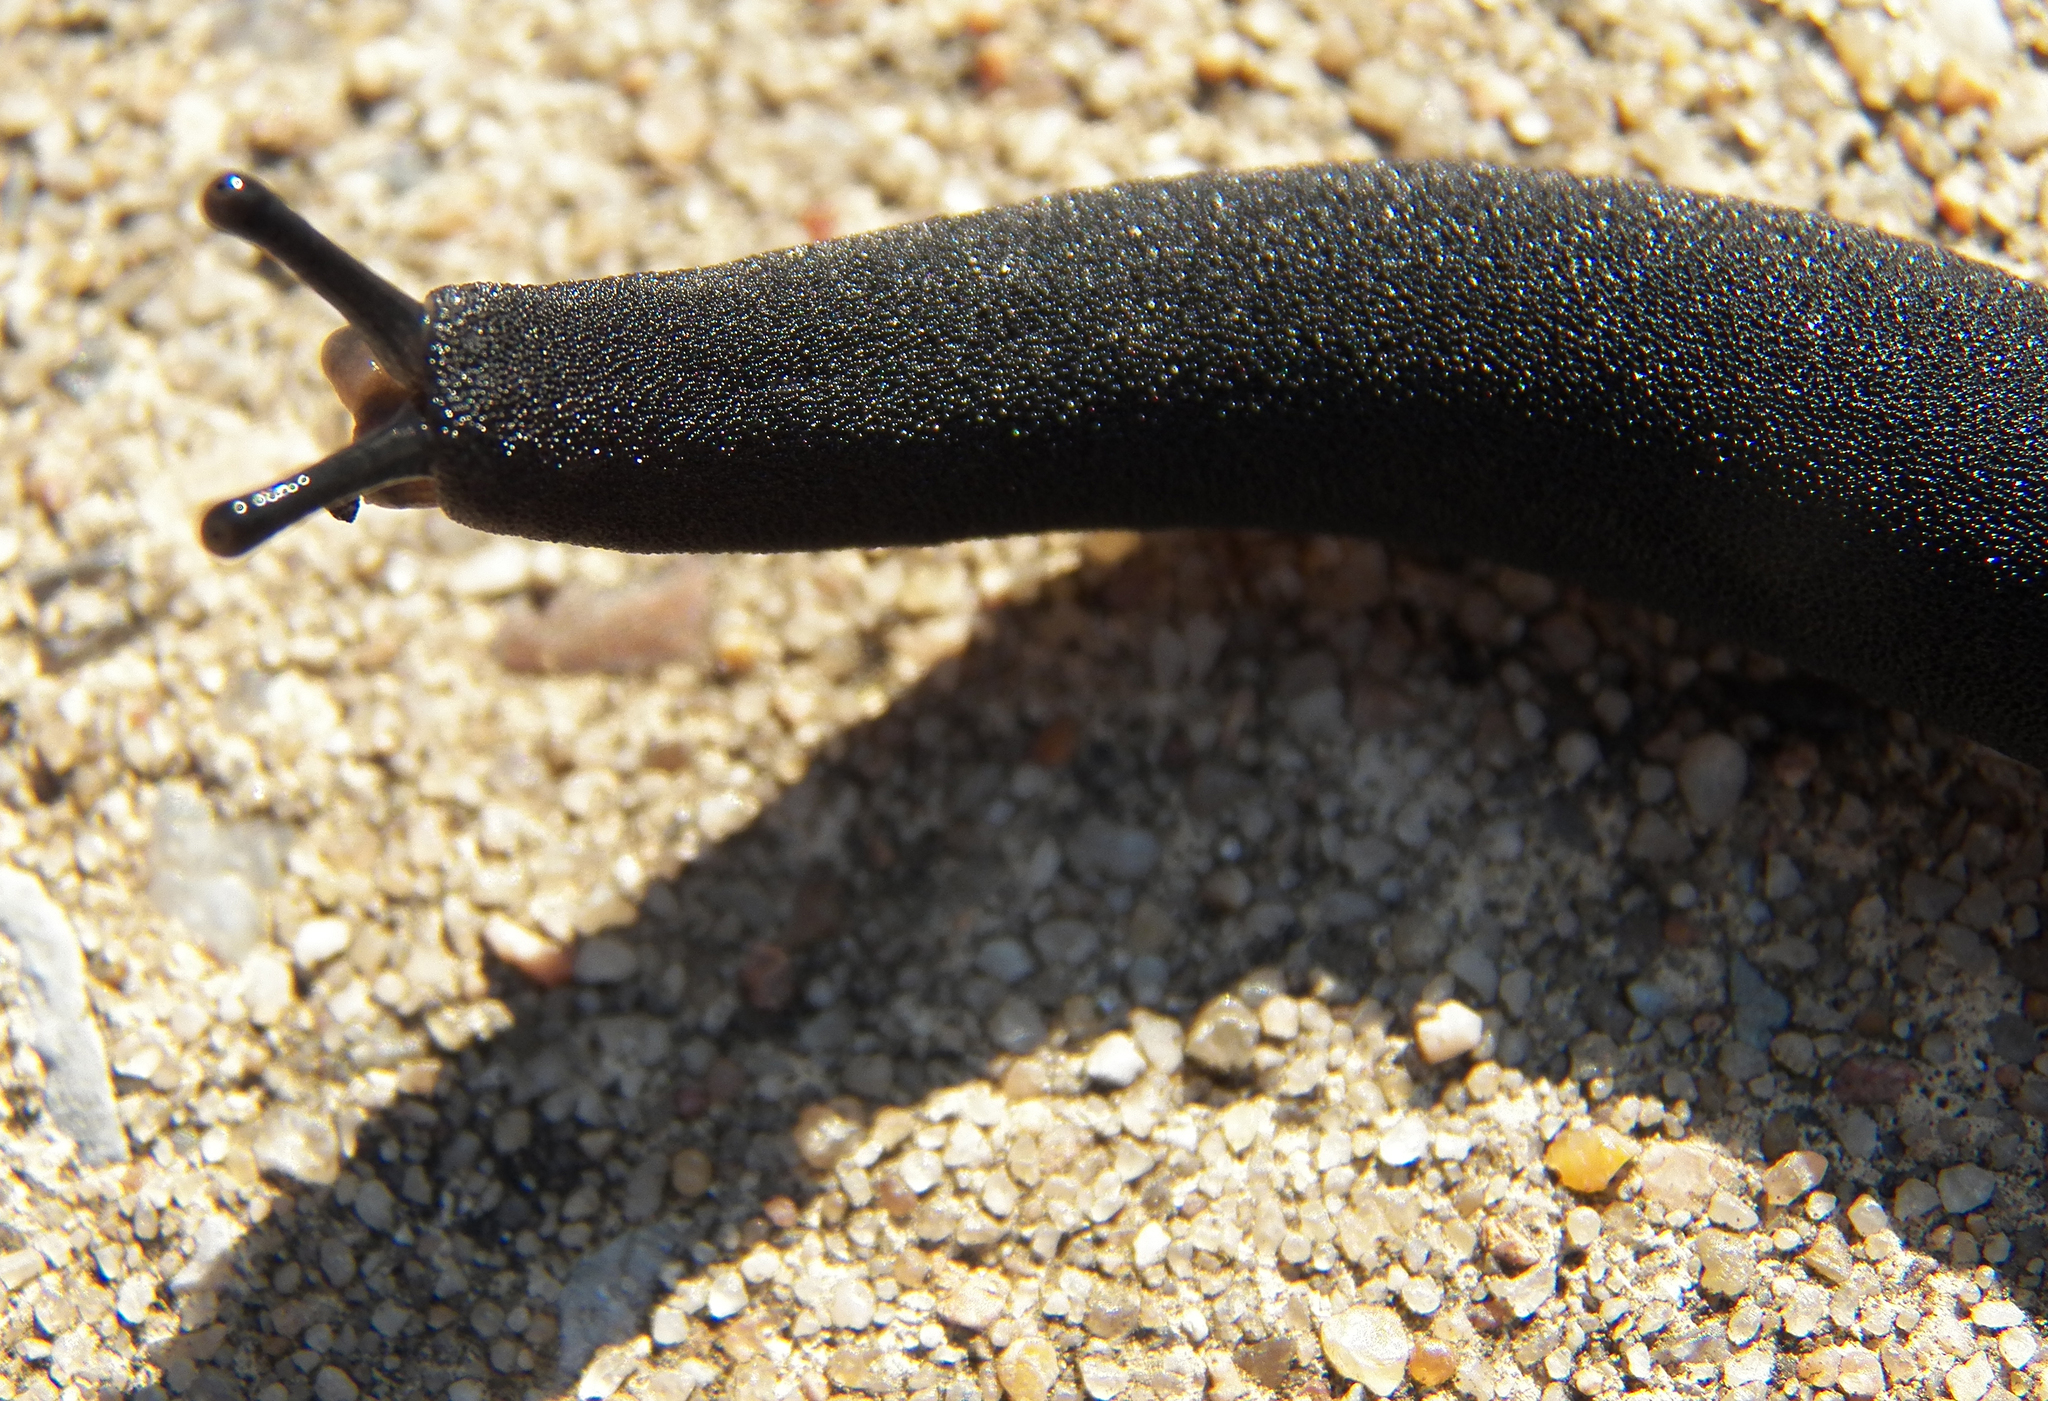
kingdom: Animalia
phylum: Mollusca
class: Gastropoda
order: Systellommatophora
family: Veronicellidae
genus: Belocaulus
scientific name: Belocaulus angustipes
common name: Black velvet leatherleaf slug
